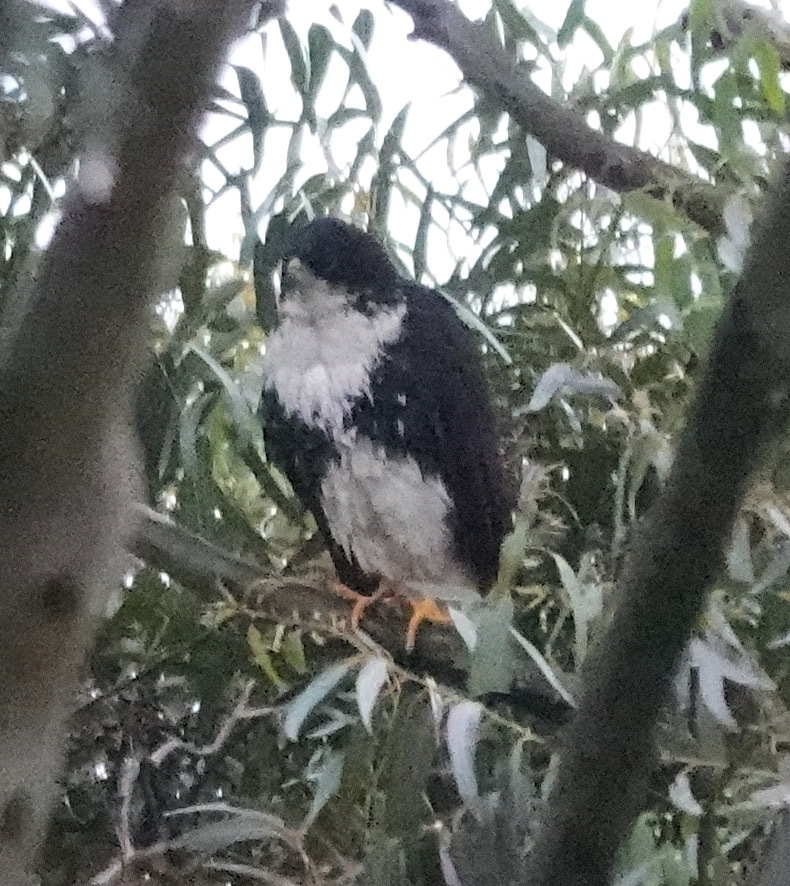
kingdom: Animalia
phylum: Chordata
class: Aves
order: Accipitriformes
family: Accipitridae
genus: Accipiter
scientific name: Accipiter melanoleucus
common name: Black sparrowhawk
